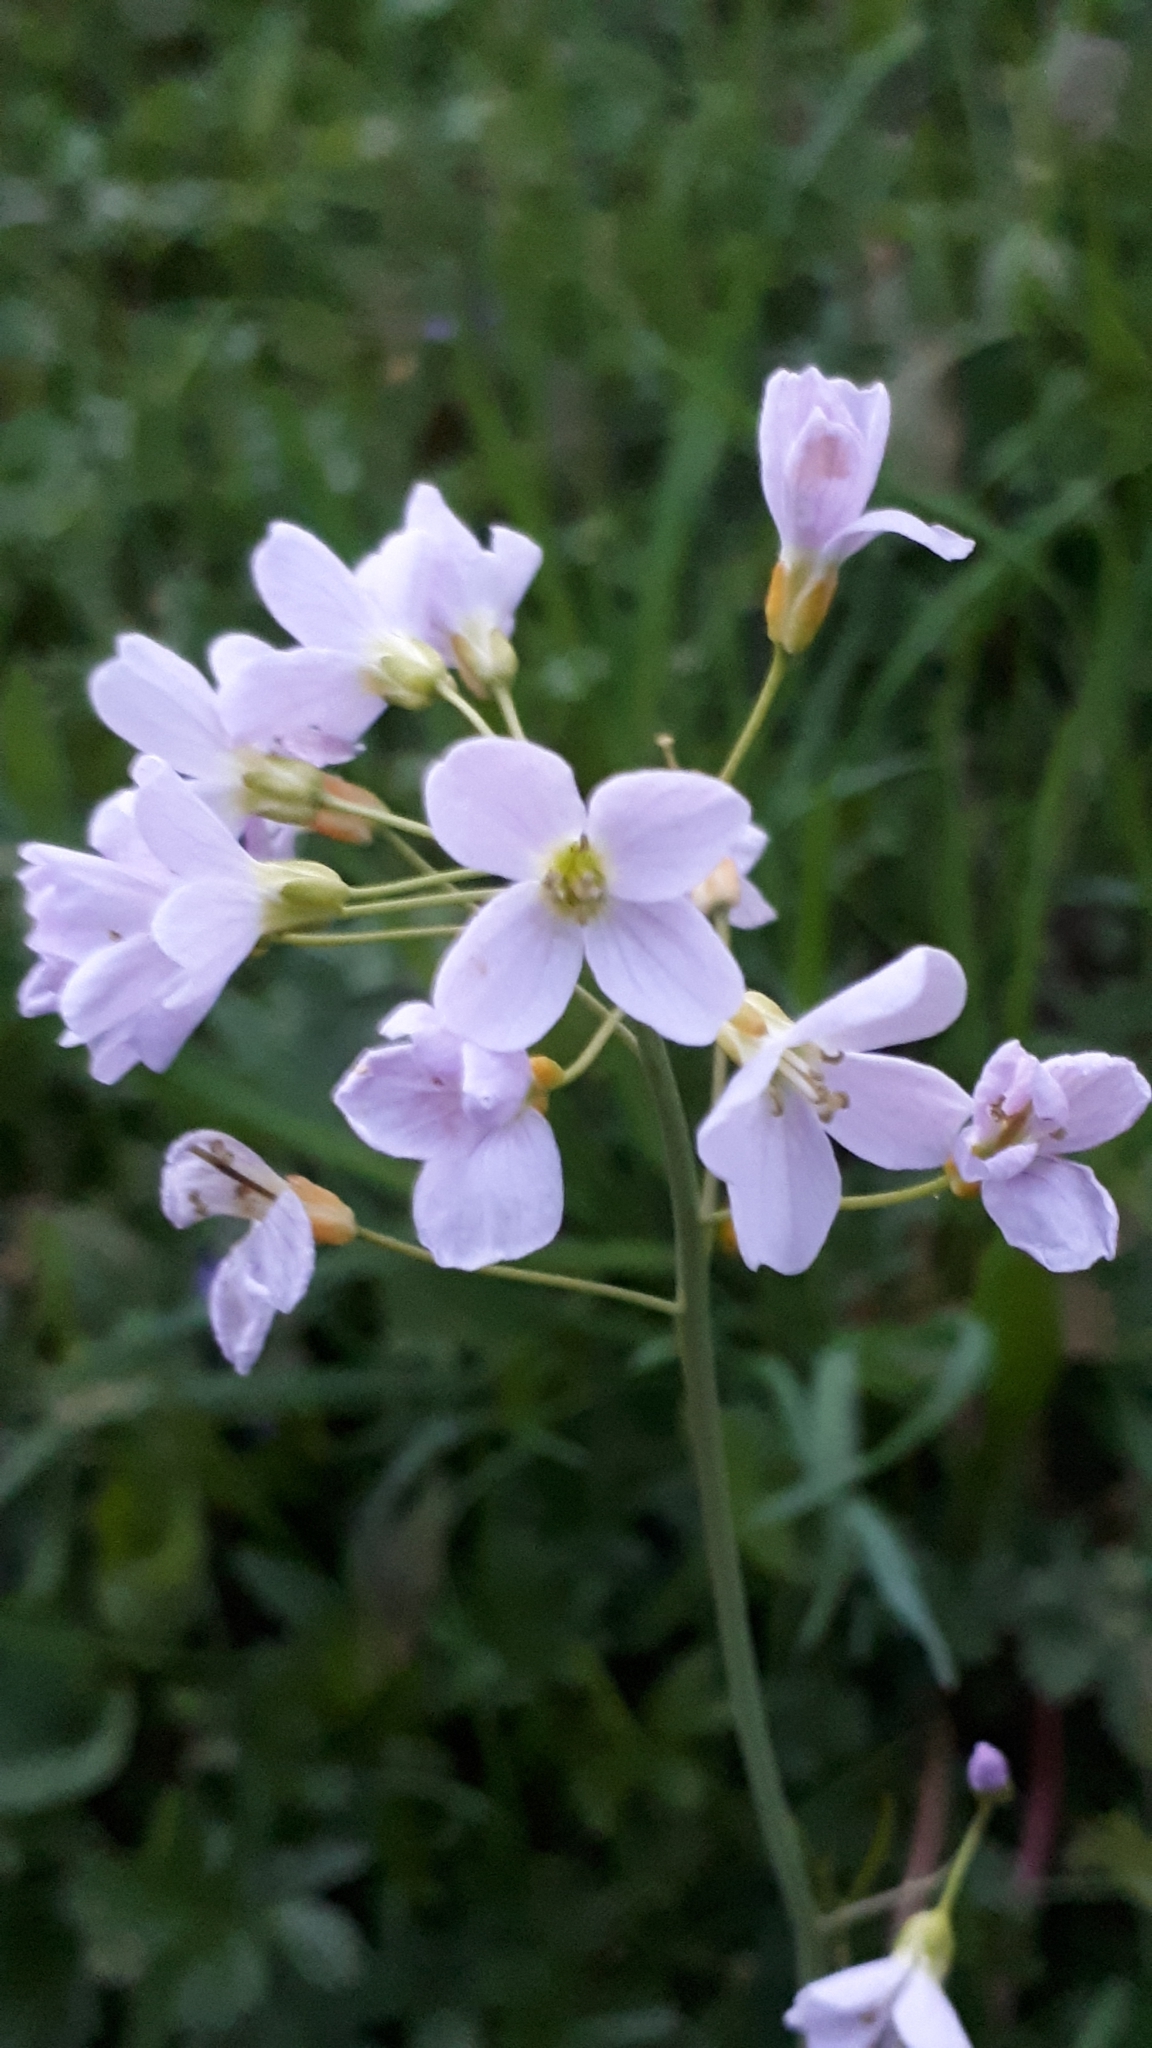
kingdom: Plantae
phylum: Tracheophyta
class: Magnoliopsida
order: Brassicales
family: Brassicaceae
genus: Cardamine
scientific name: Cardamine pratensis
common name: Cuckoo flower
